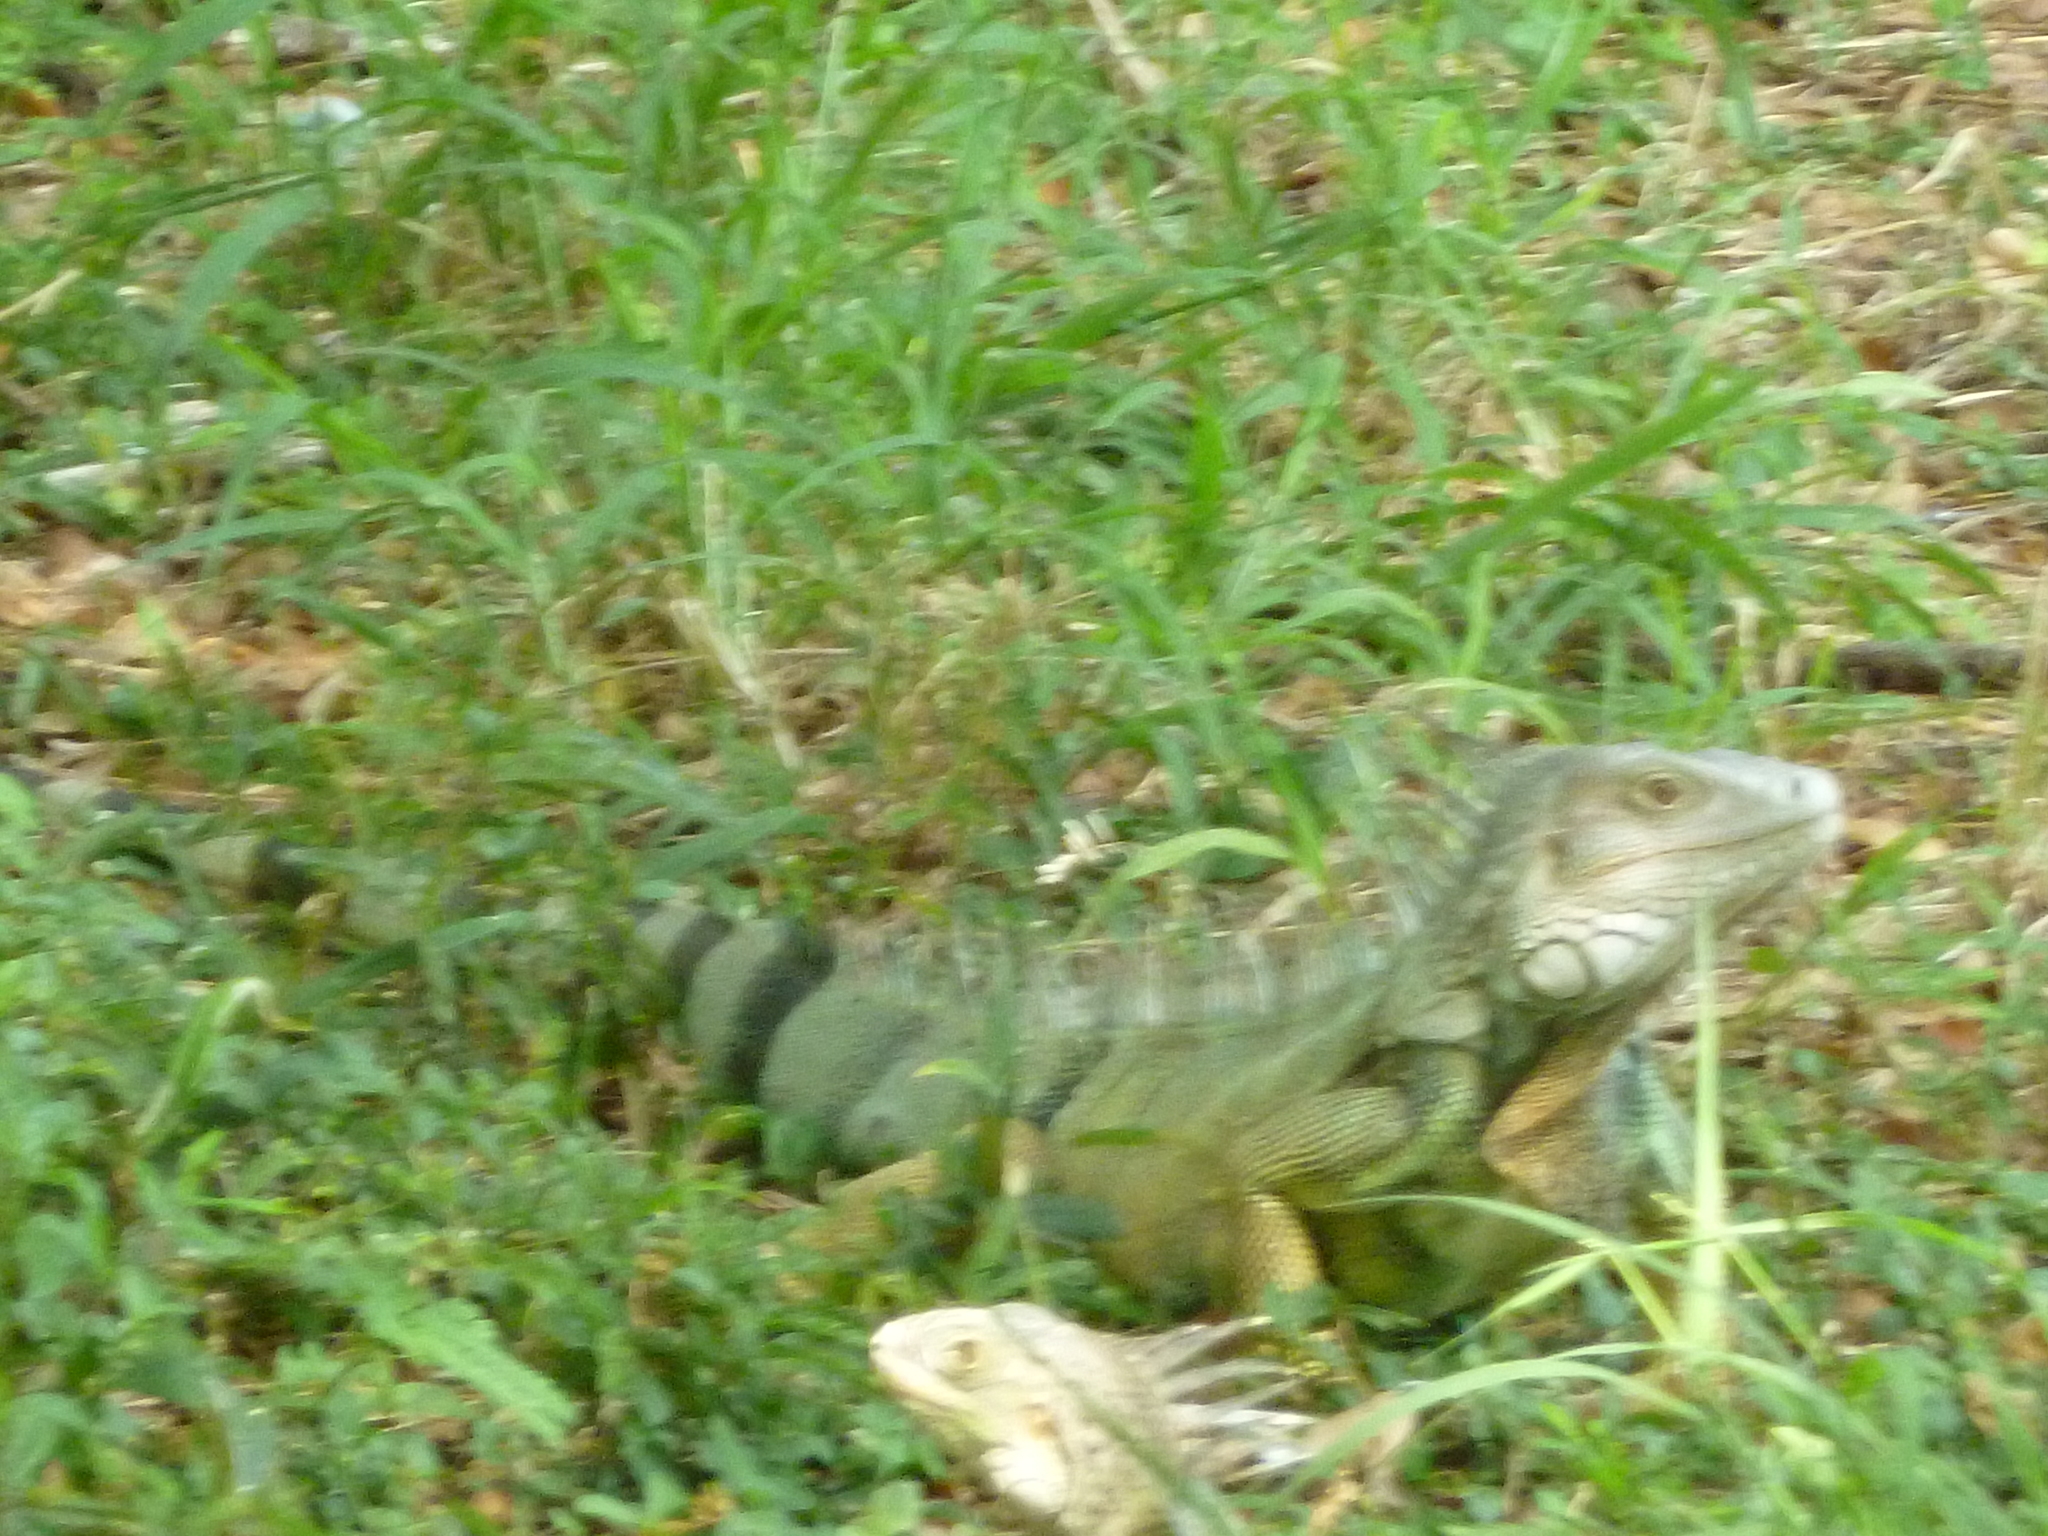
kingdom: Animalia
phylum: Chordata
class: Squamata
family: Iguanidae
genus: Iguana
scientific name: Iguana iguana
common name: Green iguana
